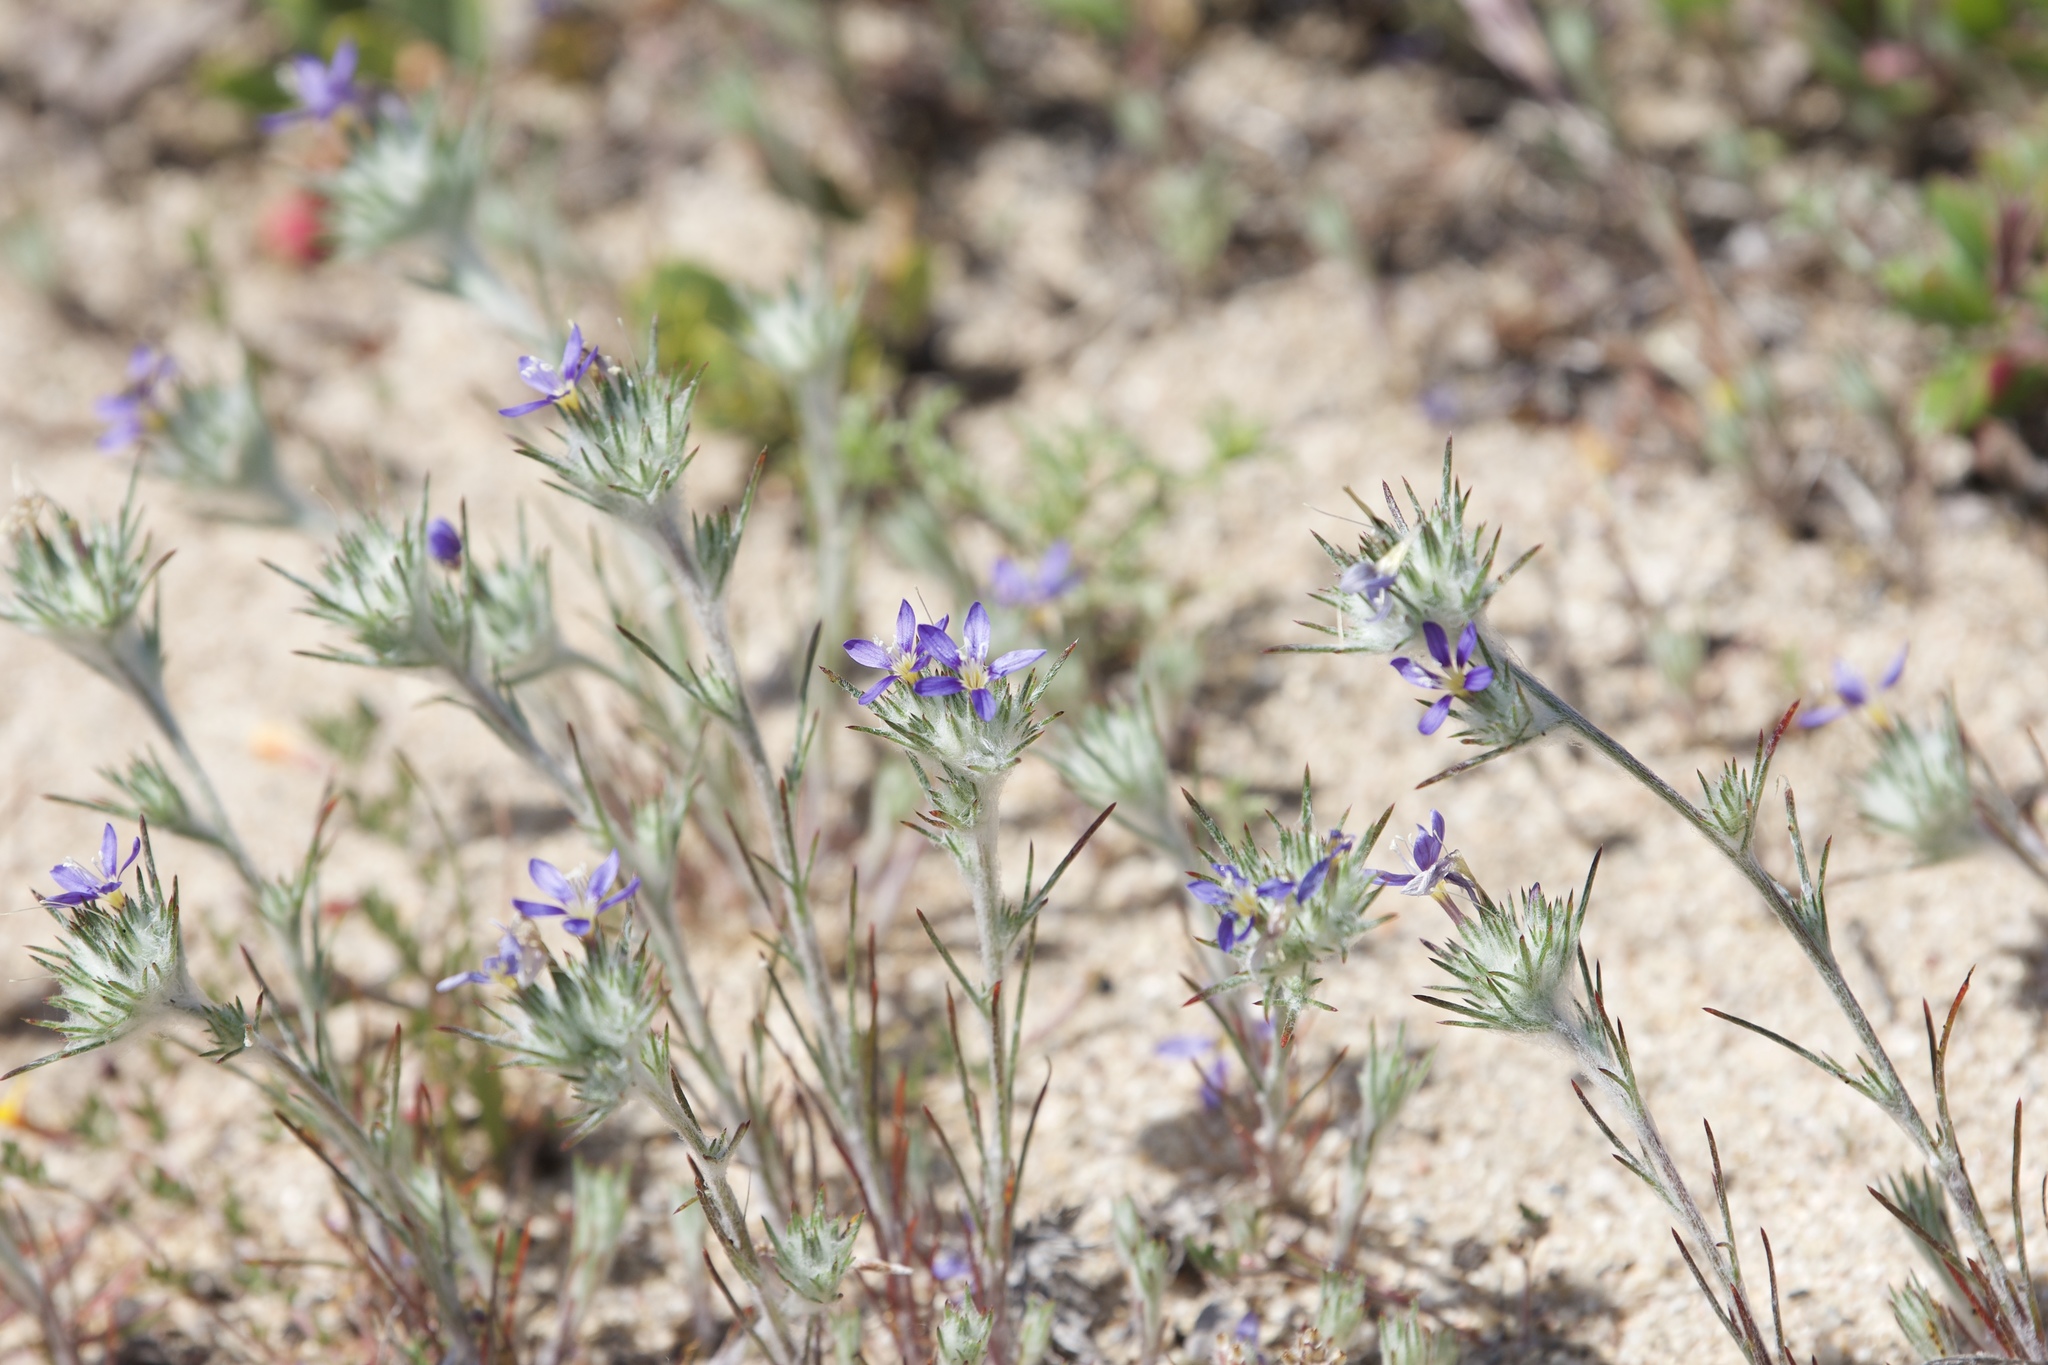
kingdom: Plantae
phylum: Tracheophyta
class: Magnoliopsida
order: Ericales
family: Polemoniaceae
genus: Eriastrum
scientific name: Eriastrum virgatum
